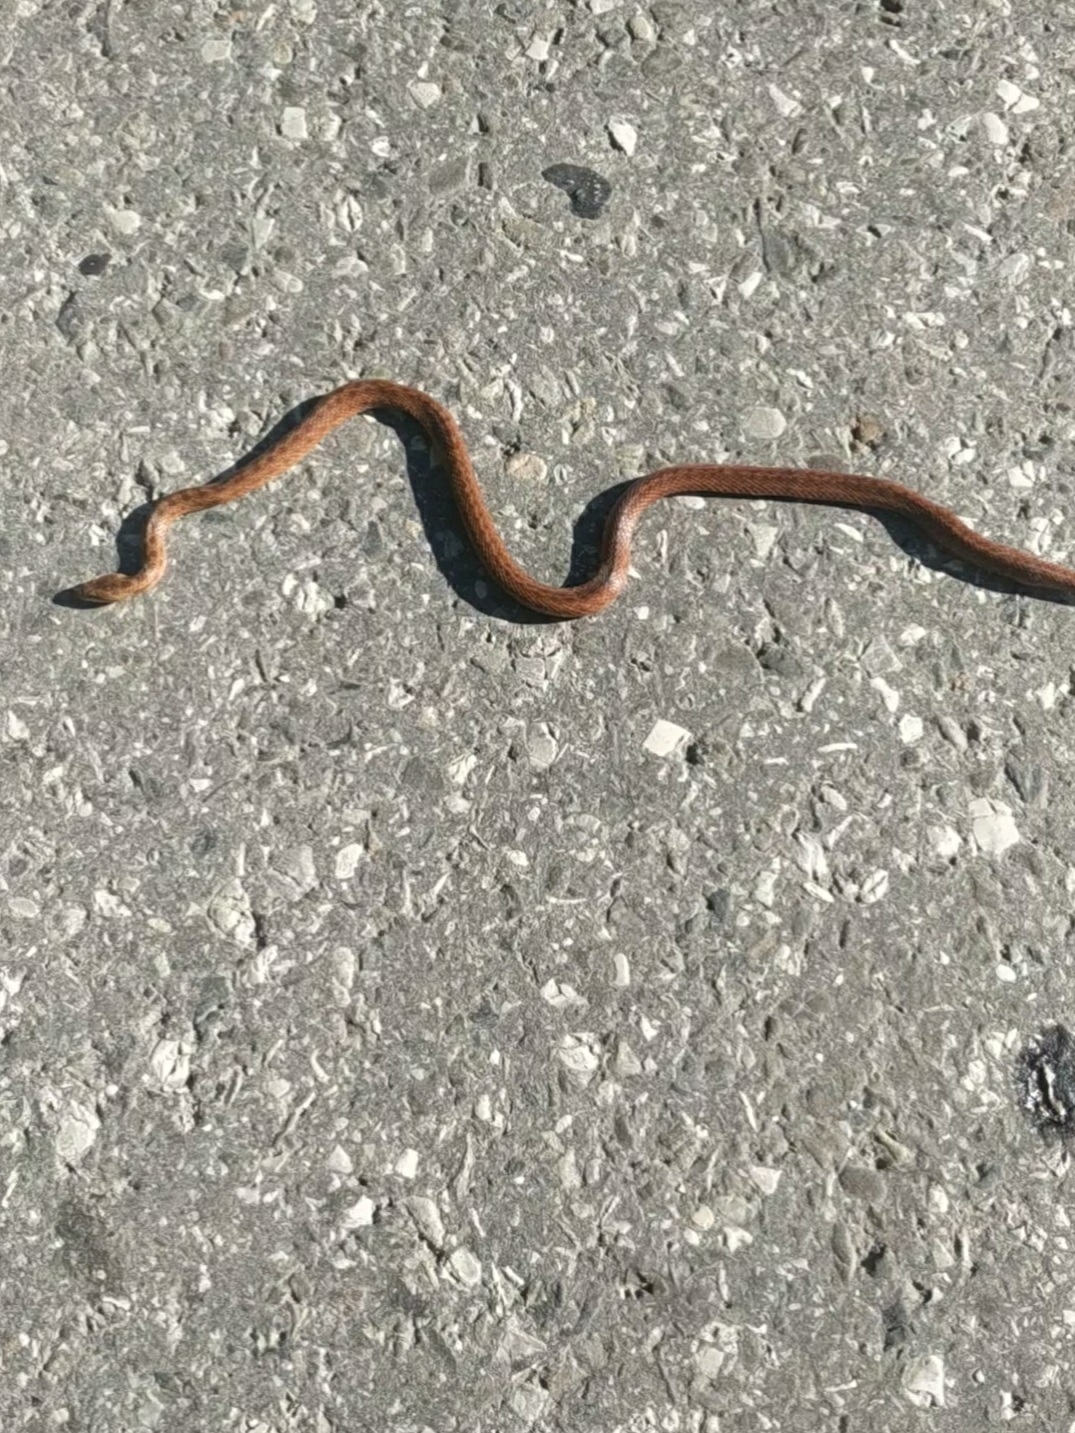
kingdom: Animalia
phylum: Chordata
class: Squamata
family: Colubridae
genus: Coronella
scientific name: Coronella austriaca
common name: Smooth snake
